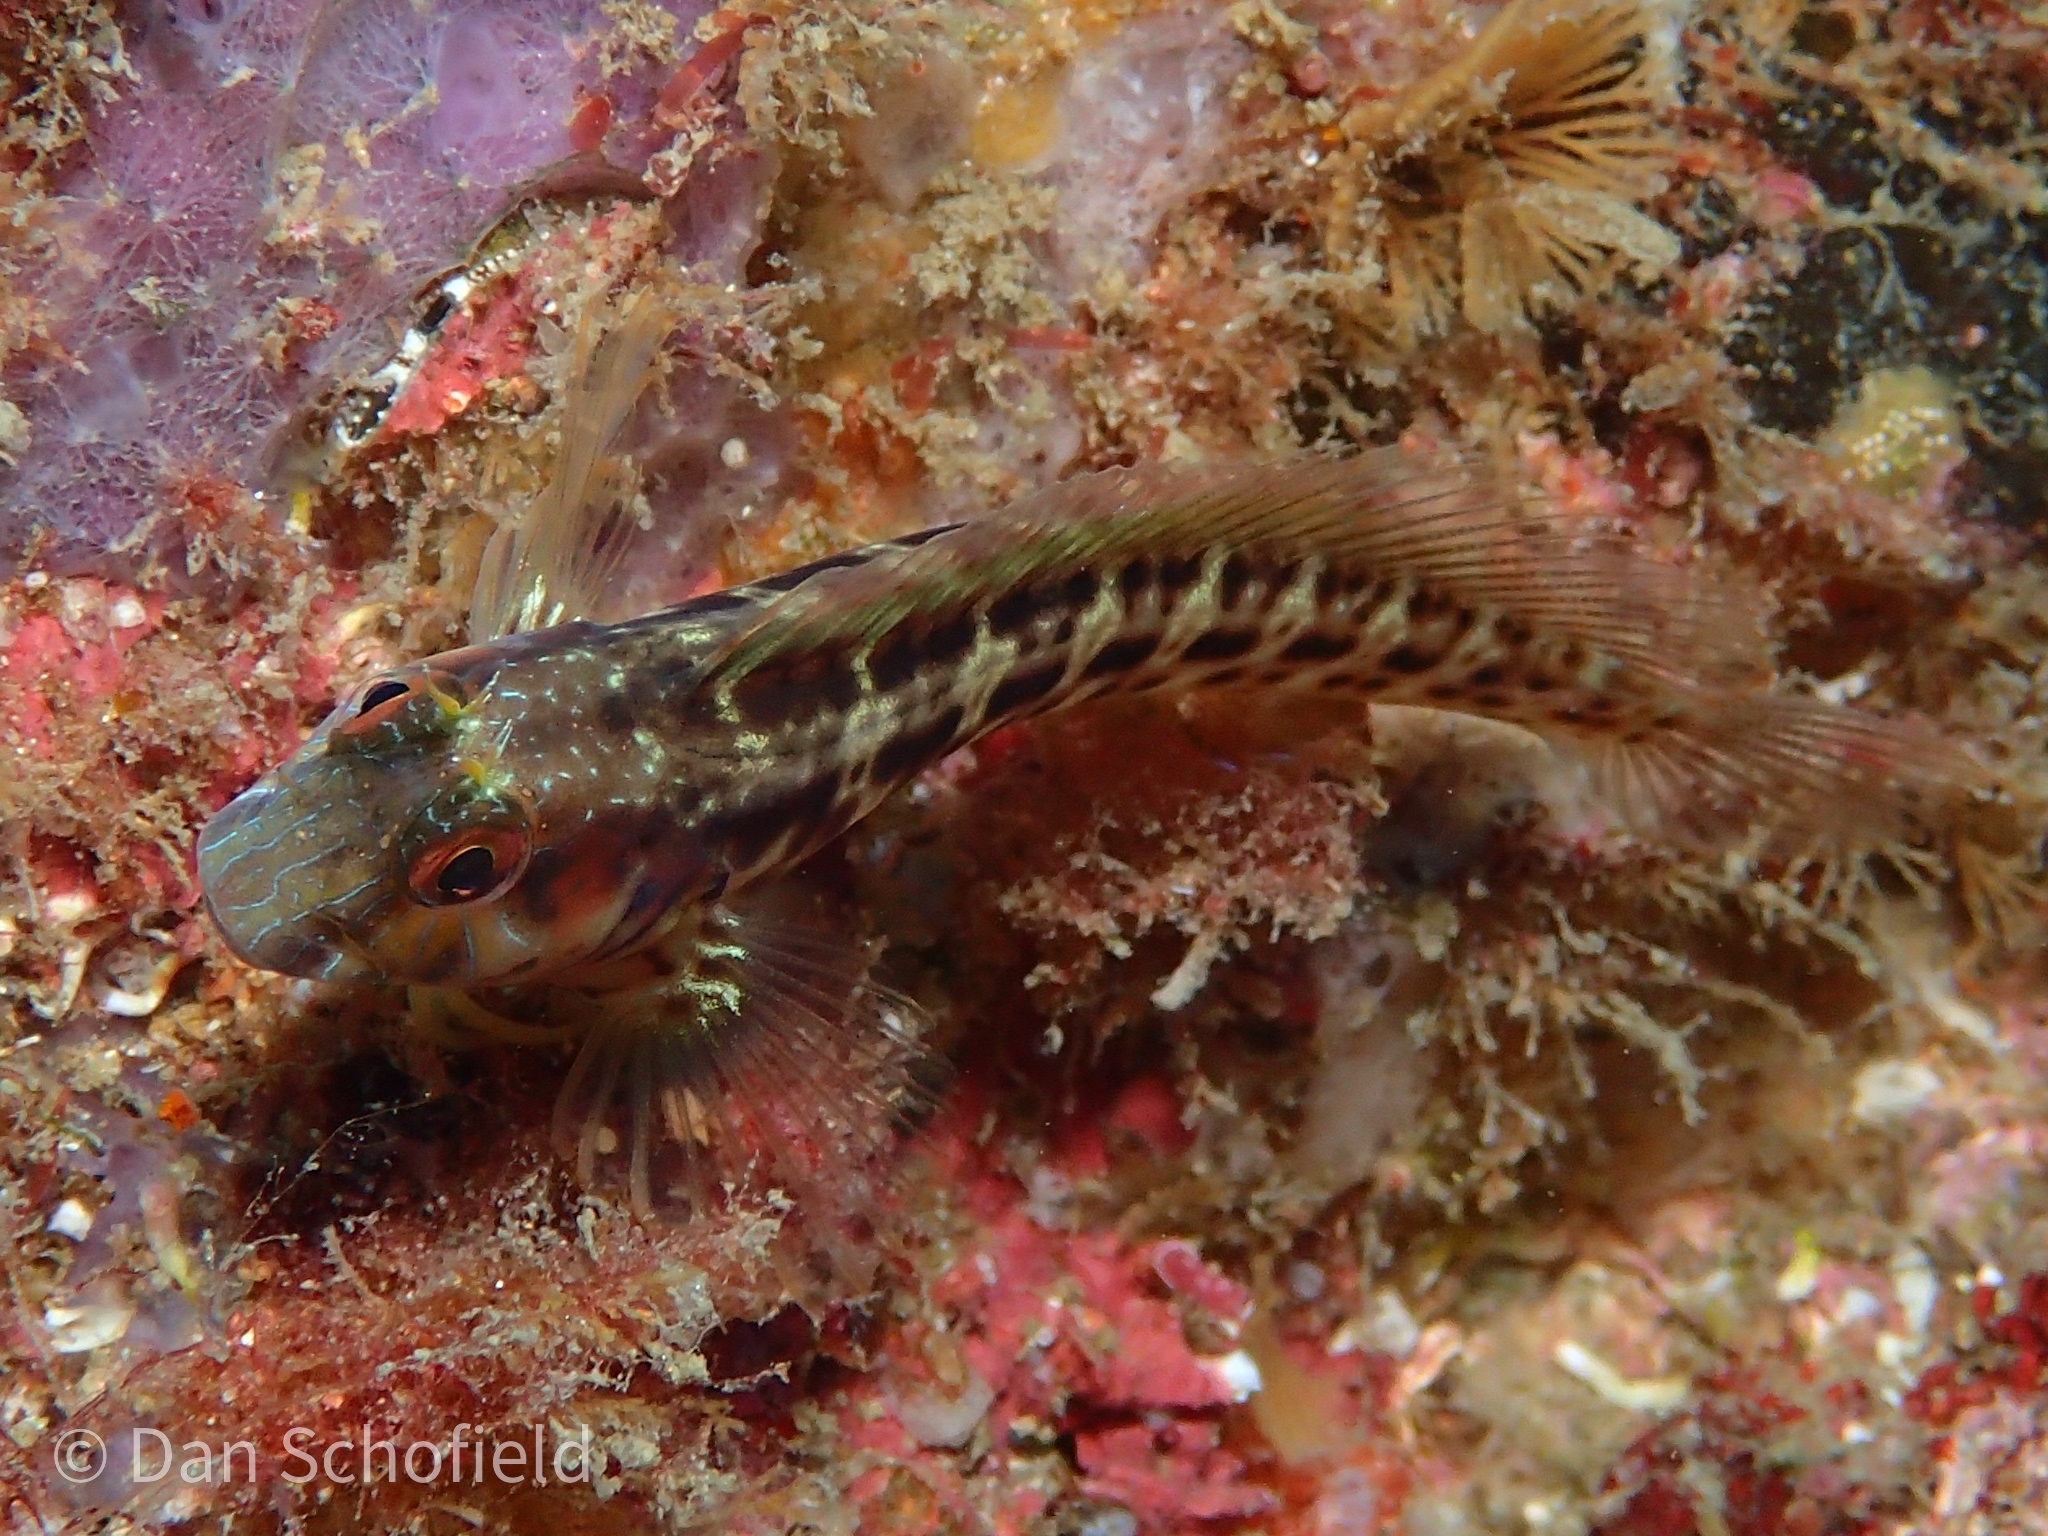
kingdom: Animalia
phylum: Chordata
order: Perciformes
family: Blenniidae
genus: Parablennius
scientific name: Parablennius marmoreus
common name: Seaweed blenny
